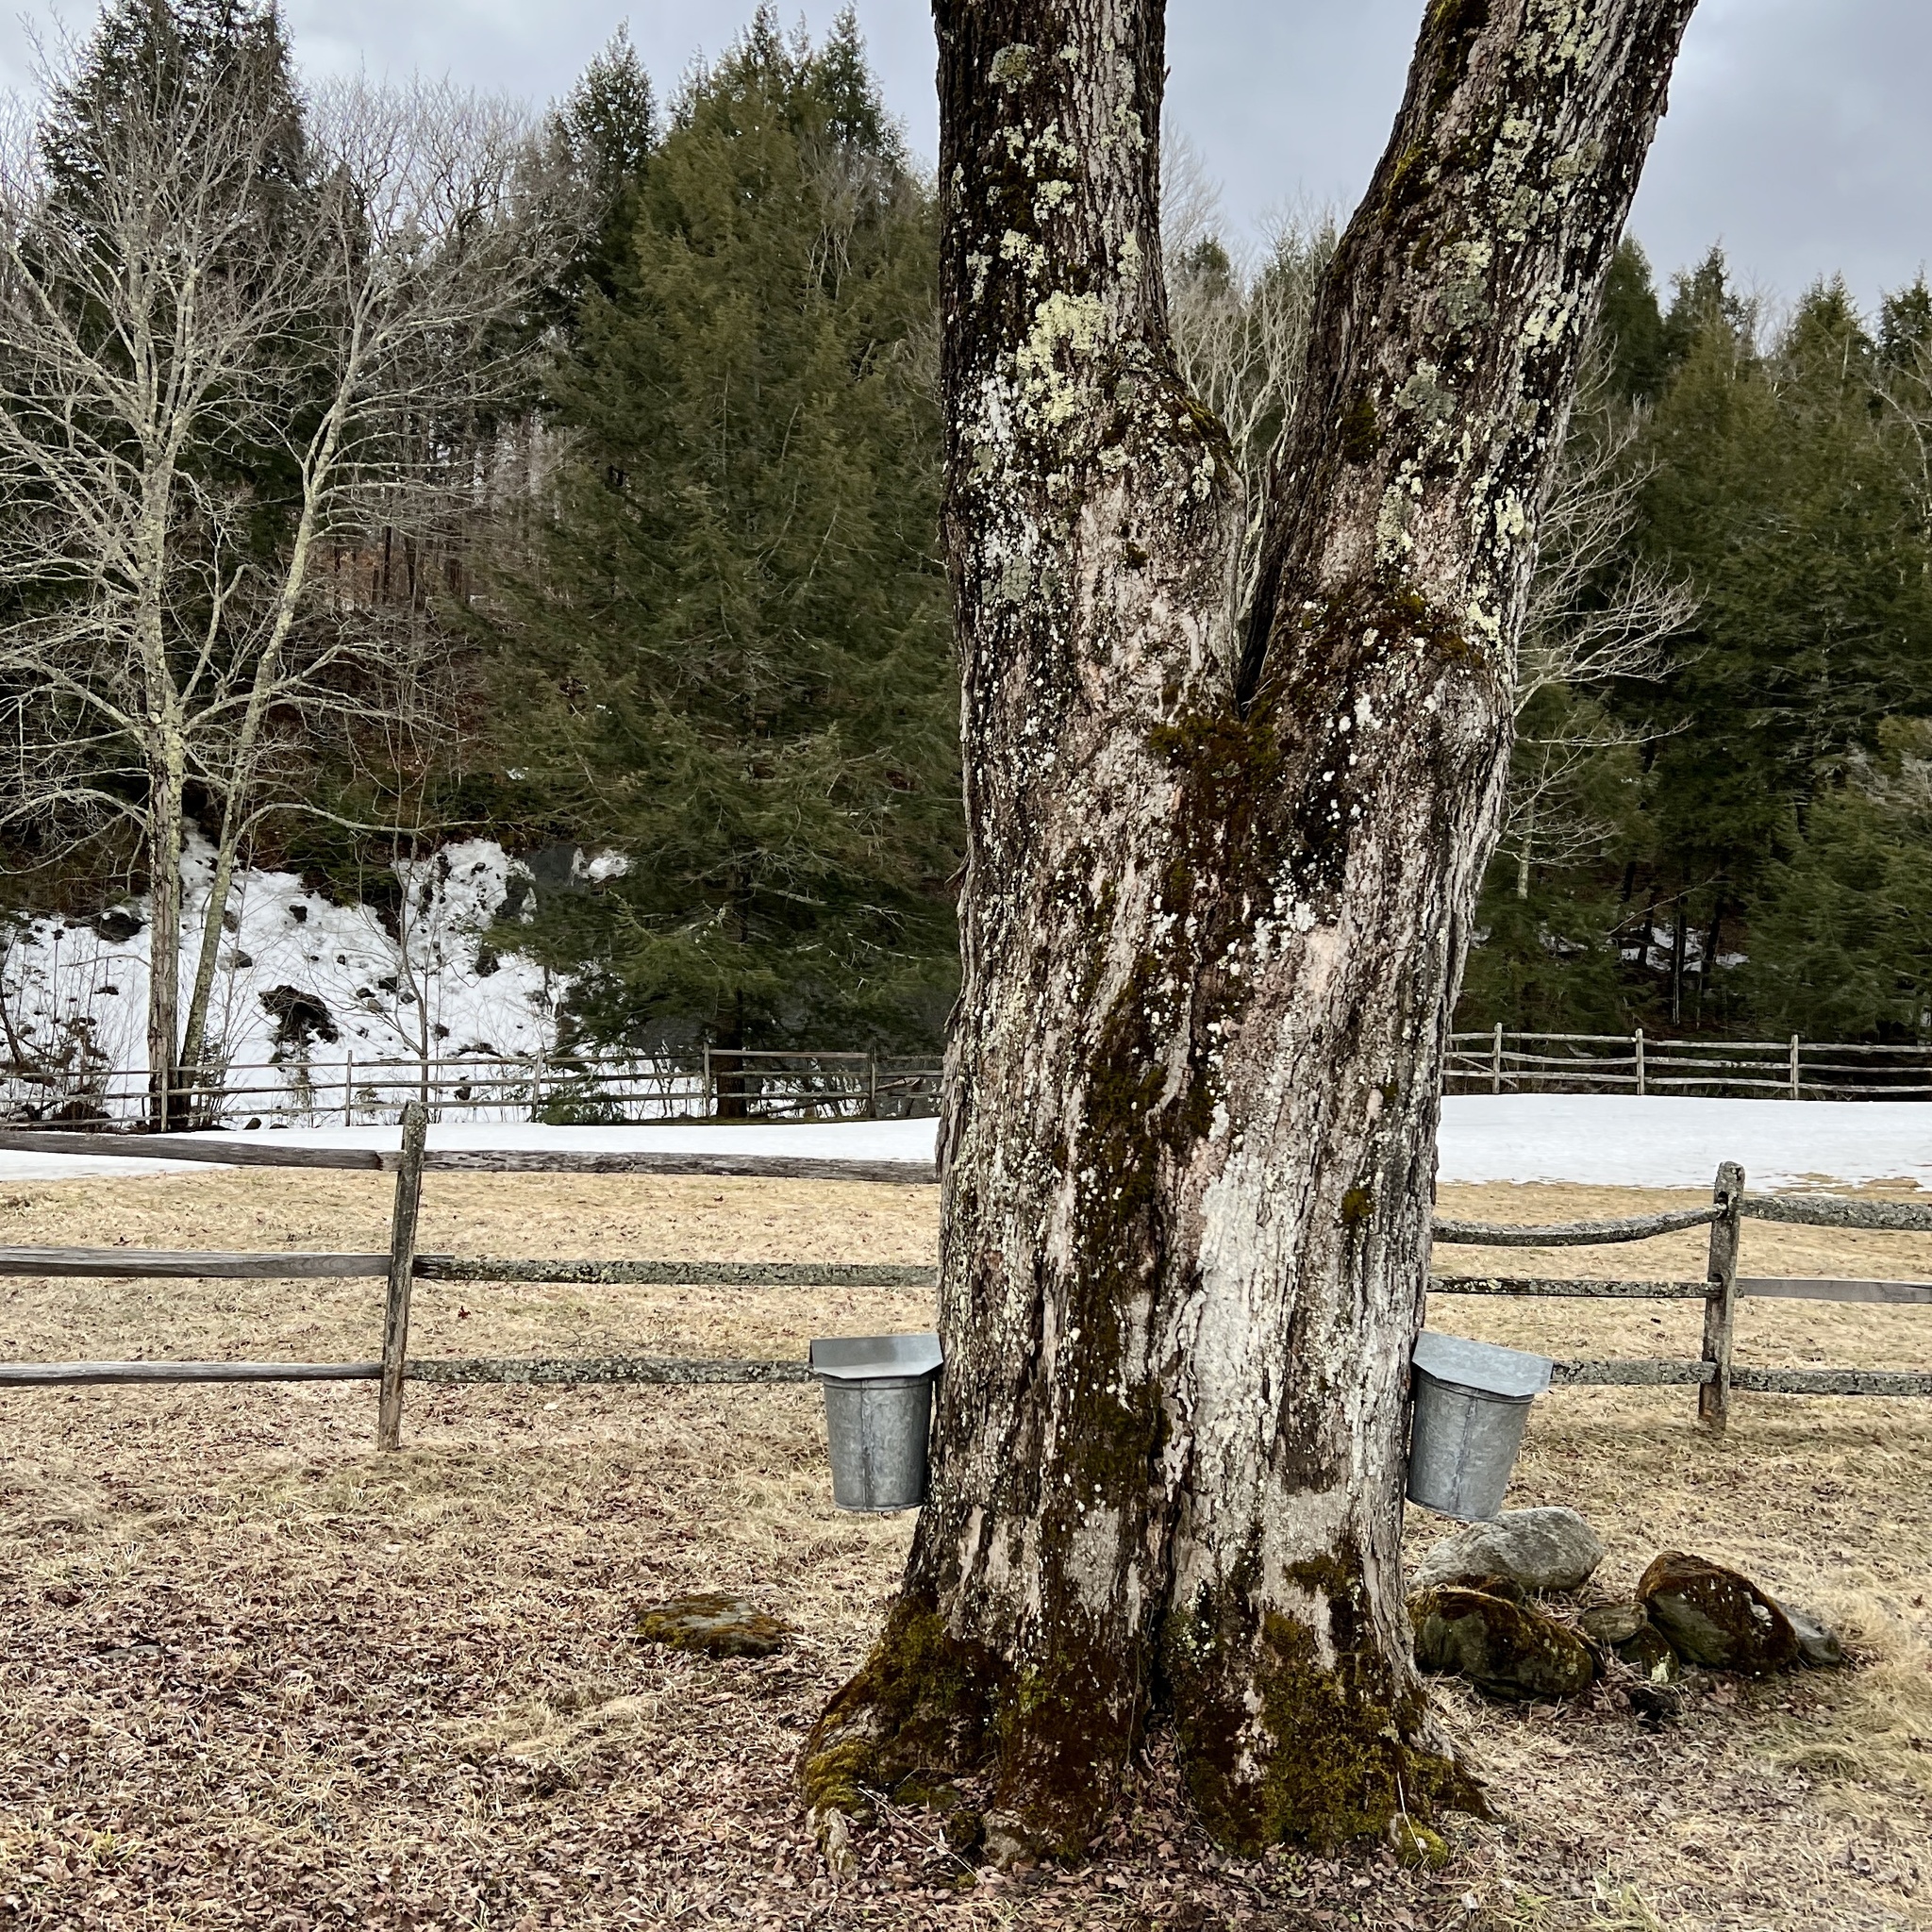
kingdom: Plantae
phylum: Tracheophyta
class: Magnoliopsida
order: Sapindales
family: Sapindaceae
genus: Acer
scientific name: Acer saccharum
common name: Sugar maple
